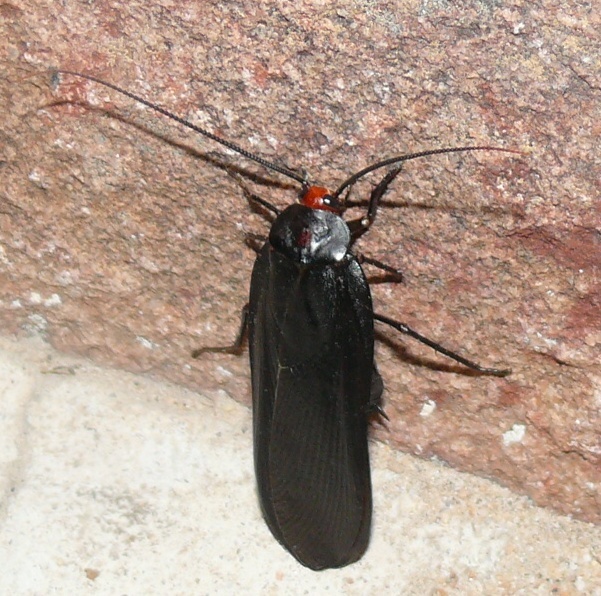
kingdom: Animalia
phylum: Arthropoda
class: Insecta
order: Blattodea
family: Blattidae
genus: Deropeltis
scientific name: Deropeltis erythrocephala
